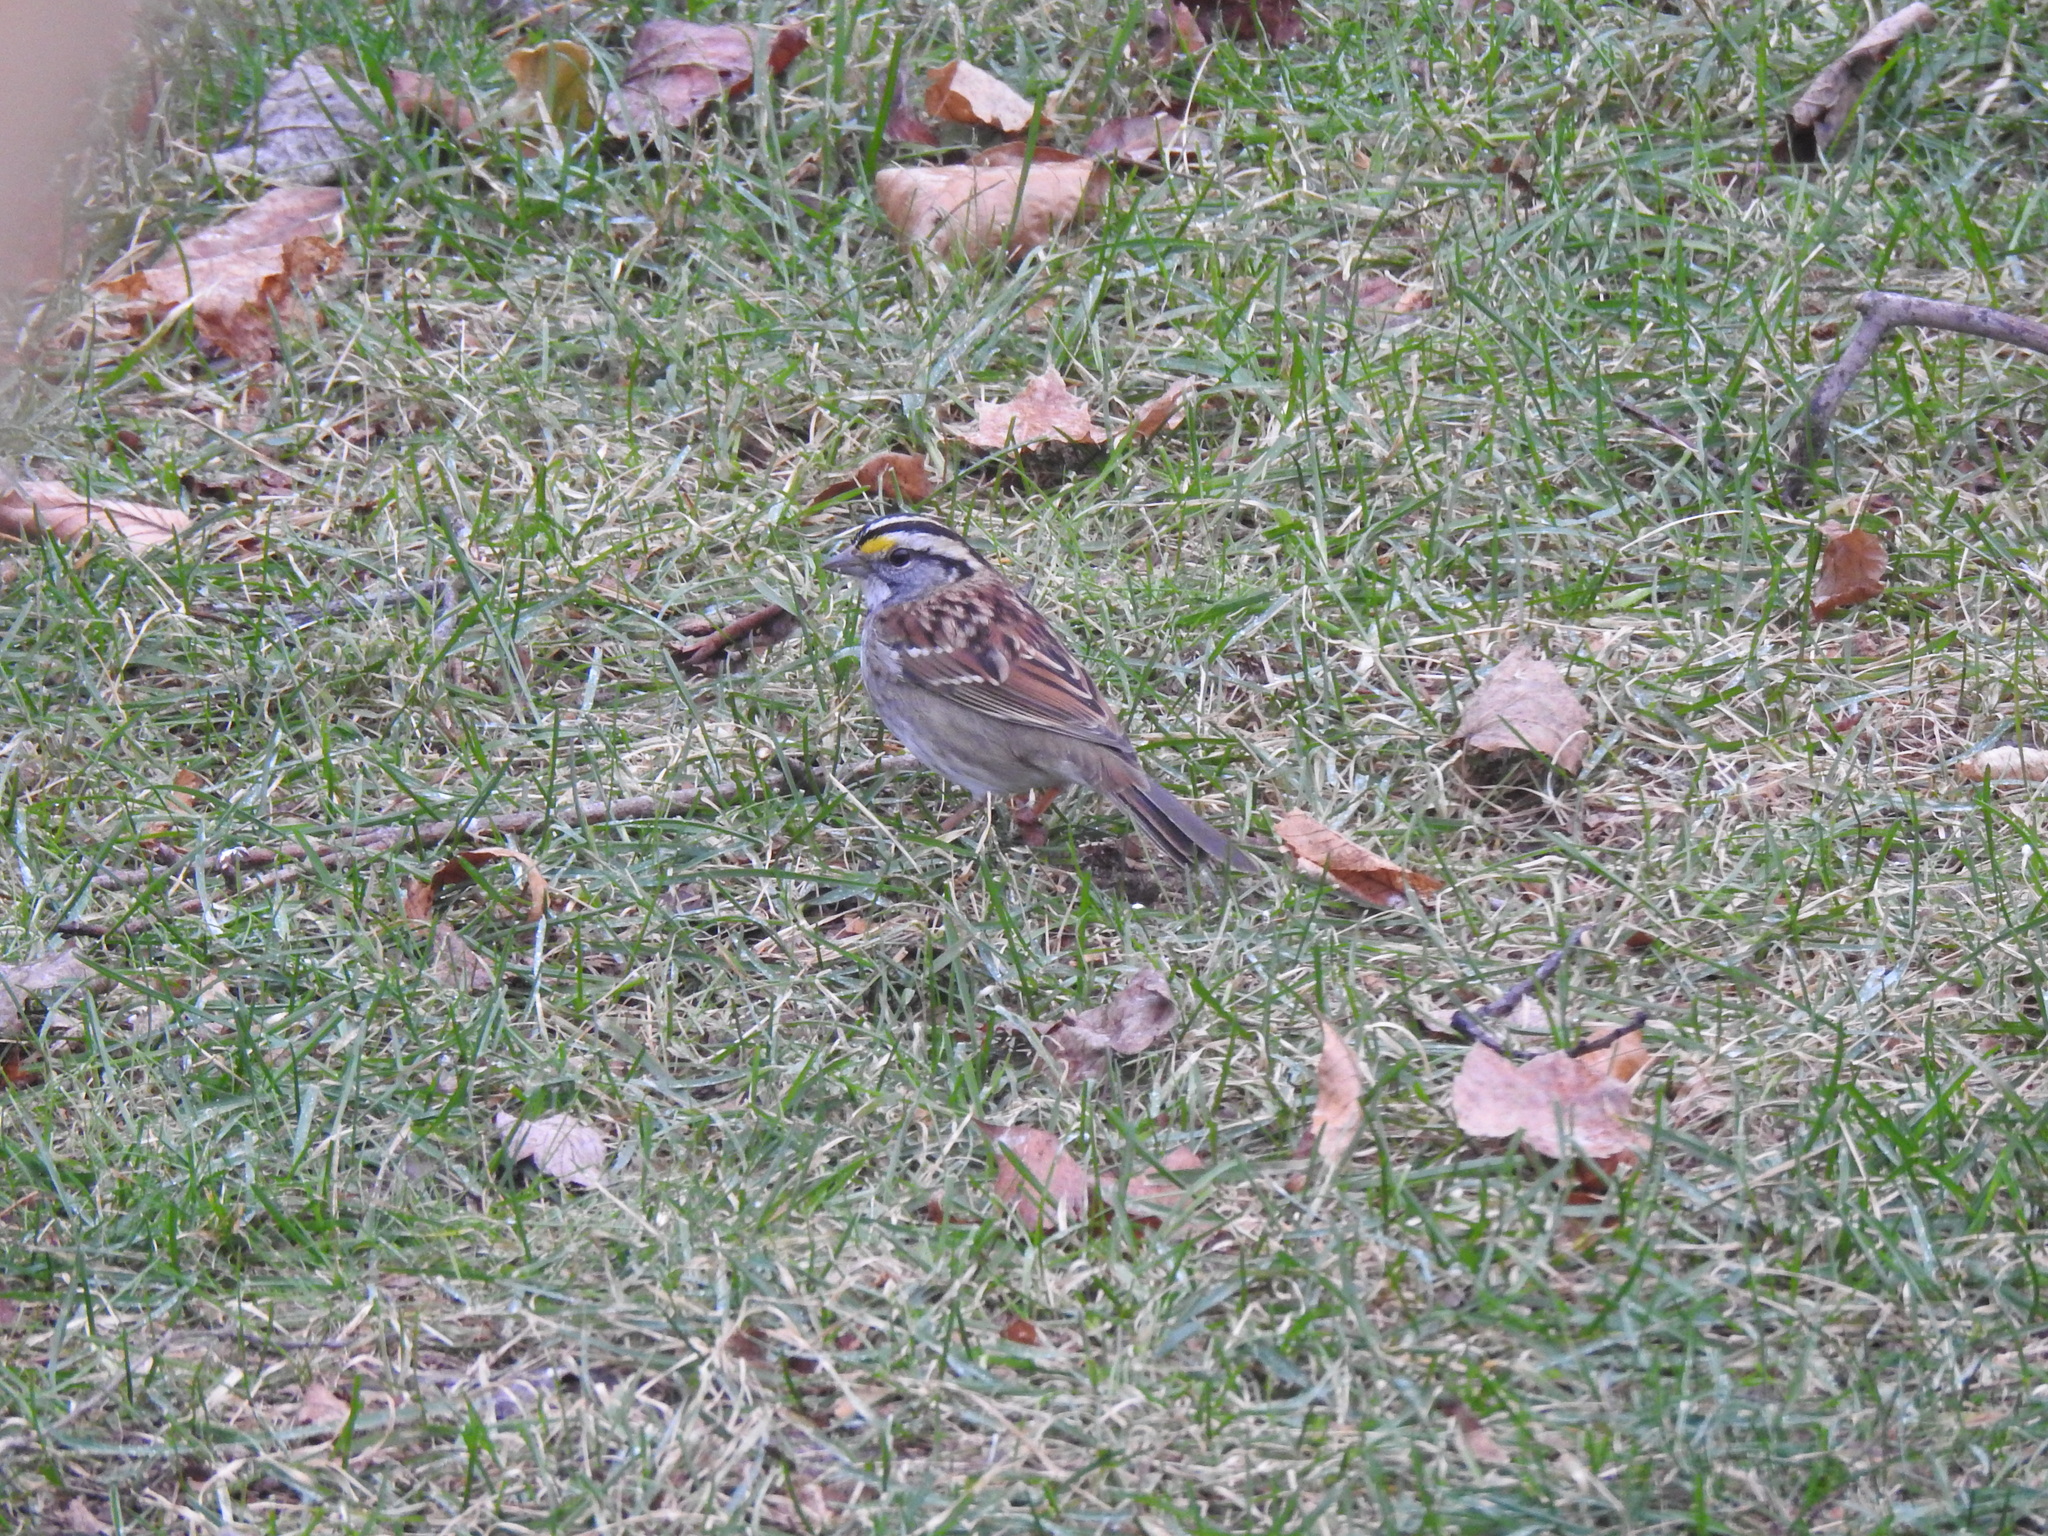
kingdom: Animalia
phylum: Chordata
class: Aves
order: Passeriformes
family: Passerellidae
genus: Zonotrichia
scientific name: Zonotrichia albicollis
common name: White-throated sparrow
